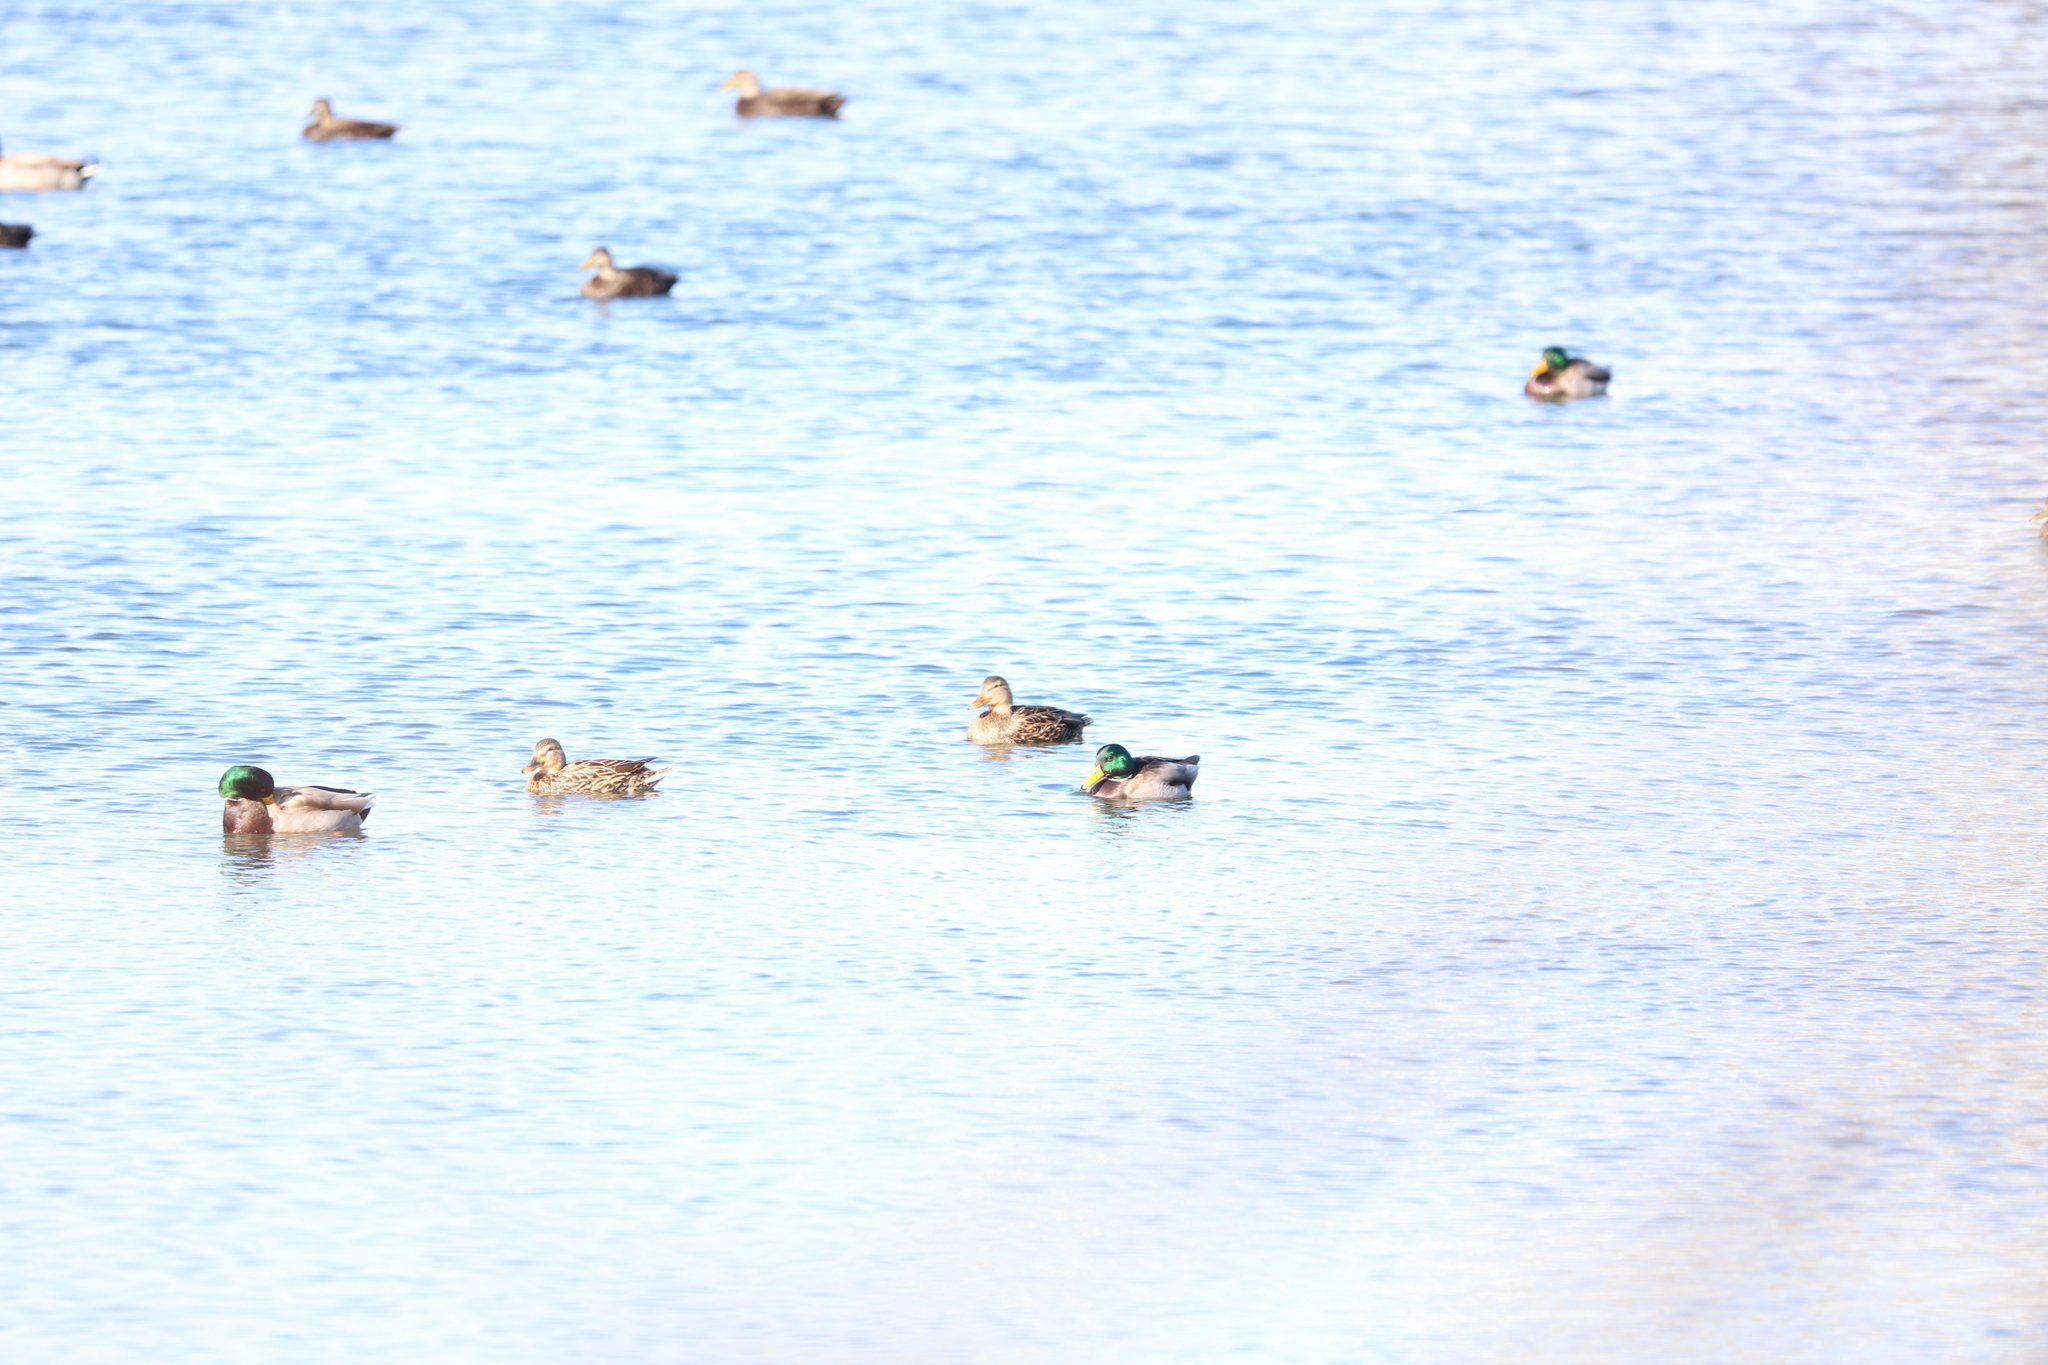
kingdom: Animalia
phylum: Chordata
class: Aves
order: Anseriformes
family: Anatidae
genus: Anas
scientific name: Anas platyrhynchos
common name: Mallard
